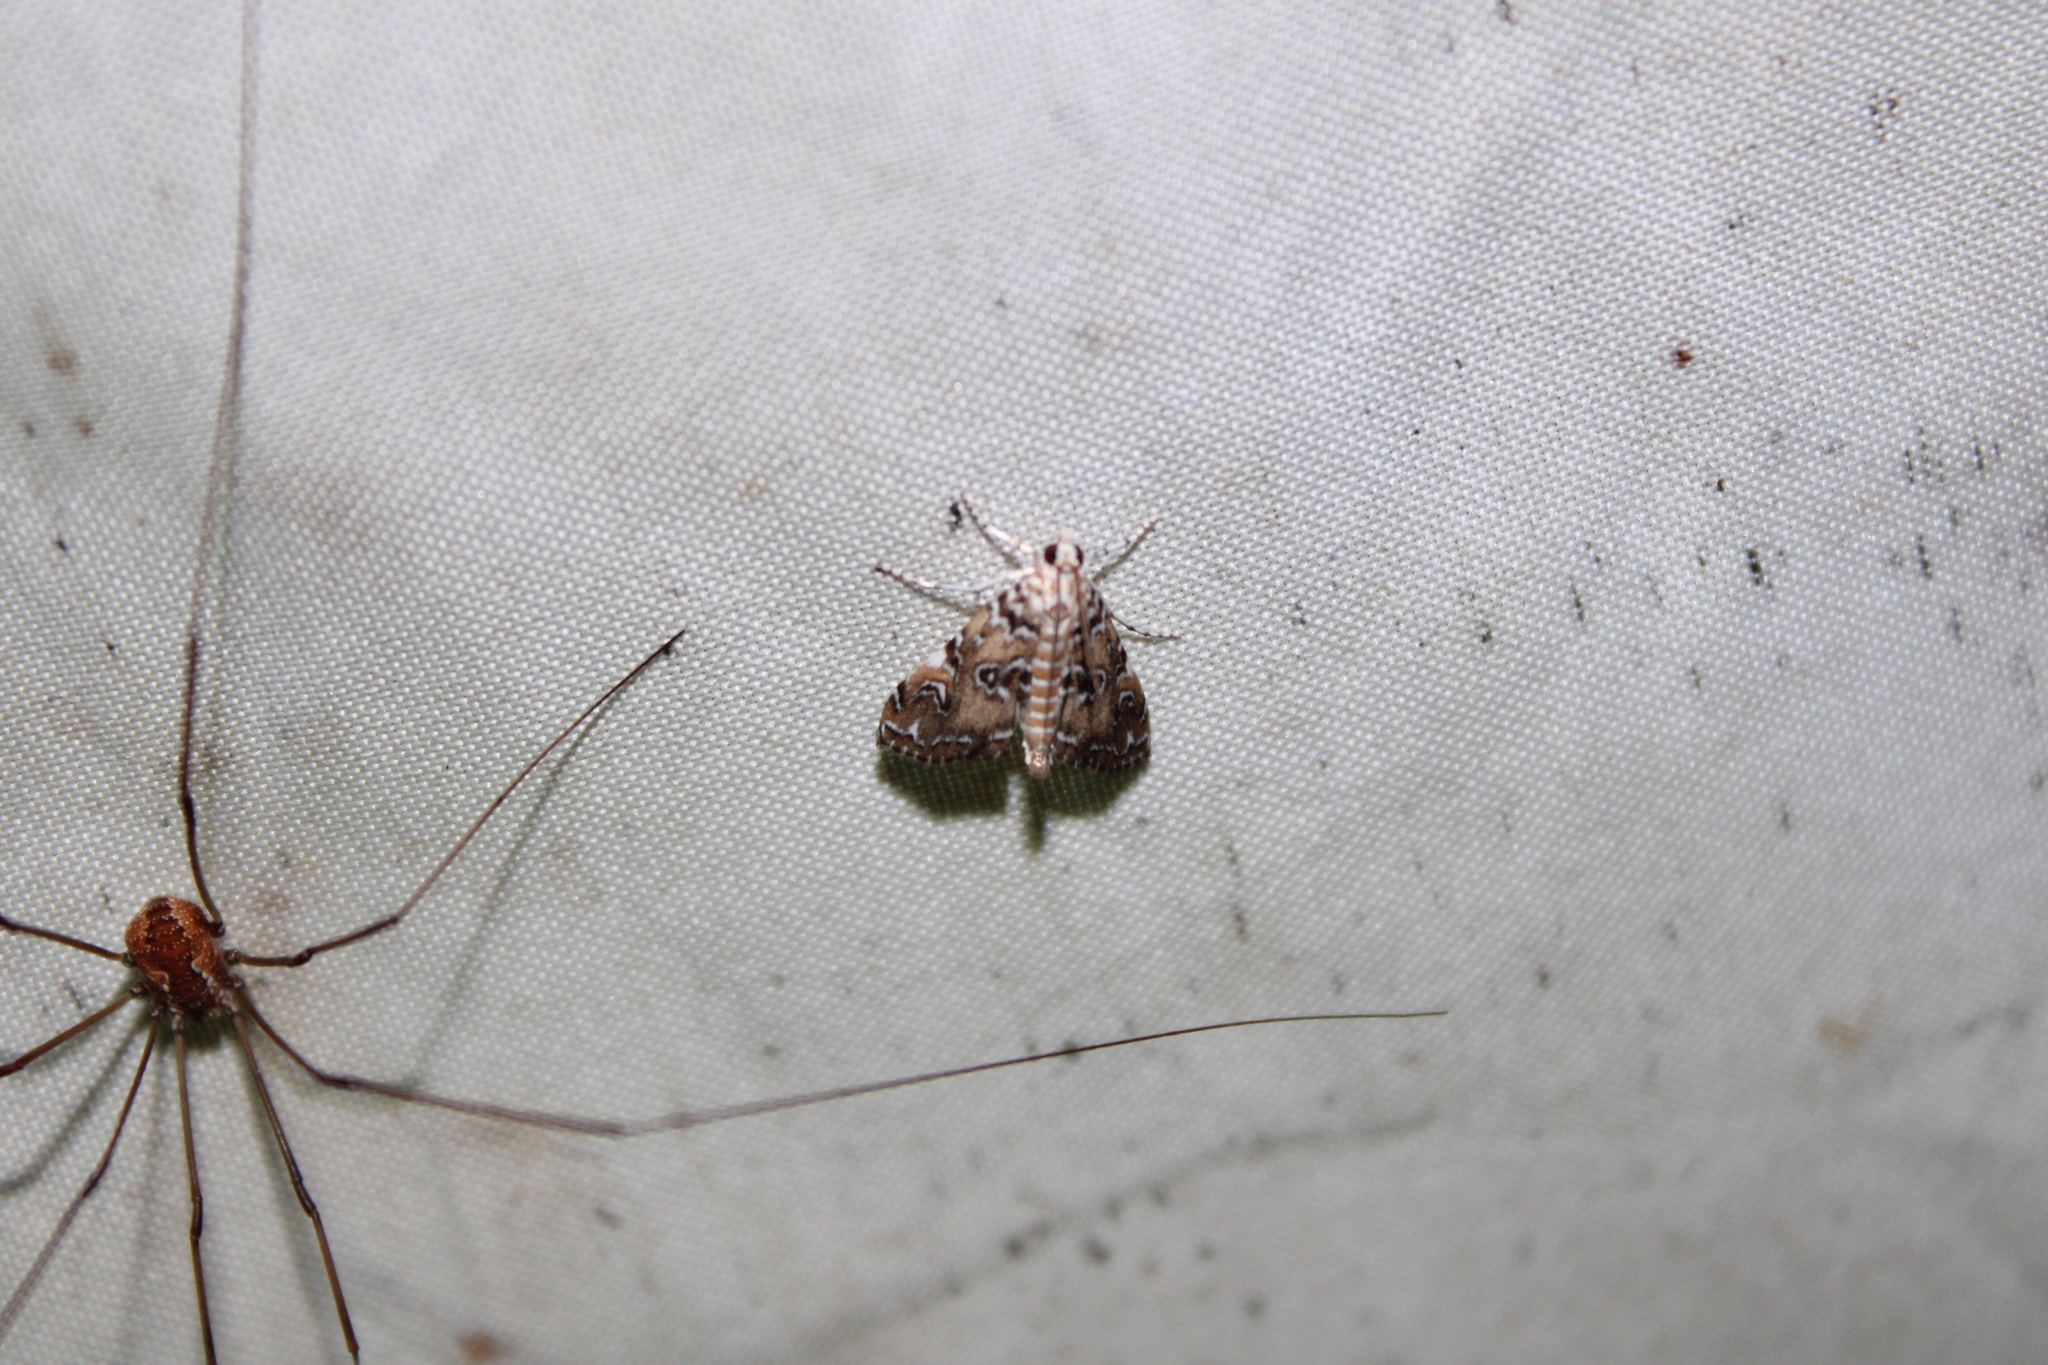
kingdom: Animalia
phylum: Arthropoda
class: Insecta
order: Lepidoptera
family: Crambidae
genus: Elophila
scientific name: Elophila gyralis
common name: Waterlily borer moth
